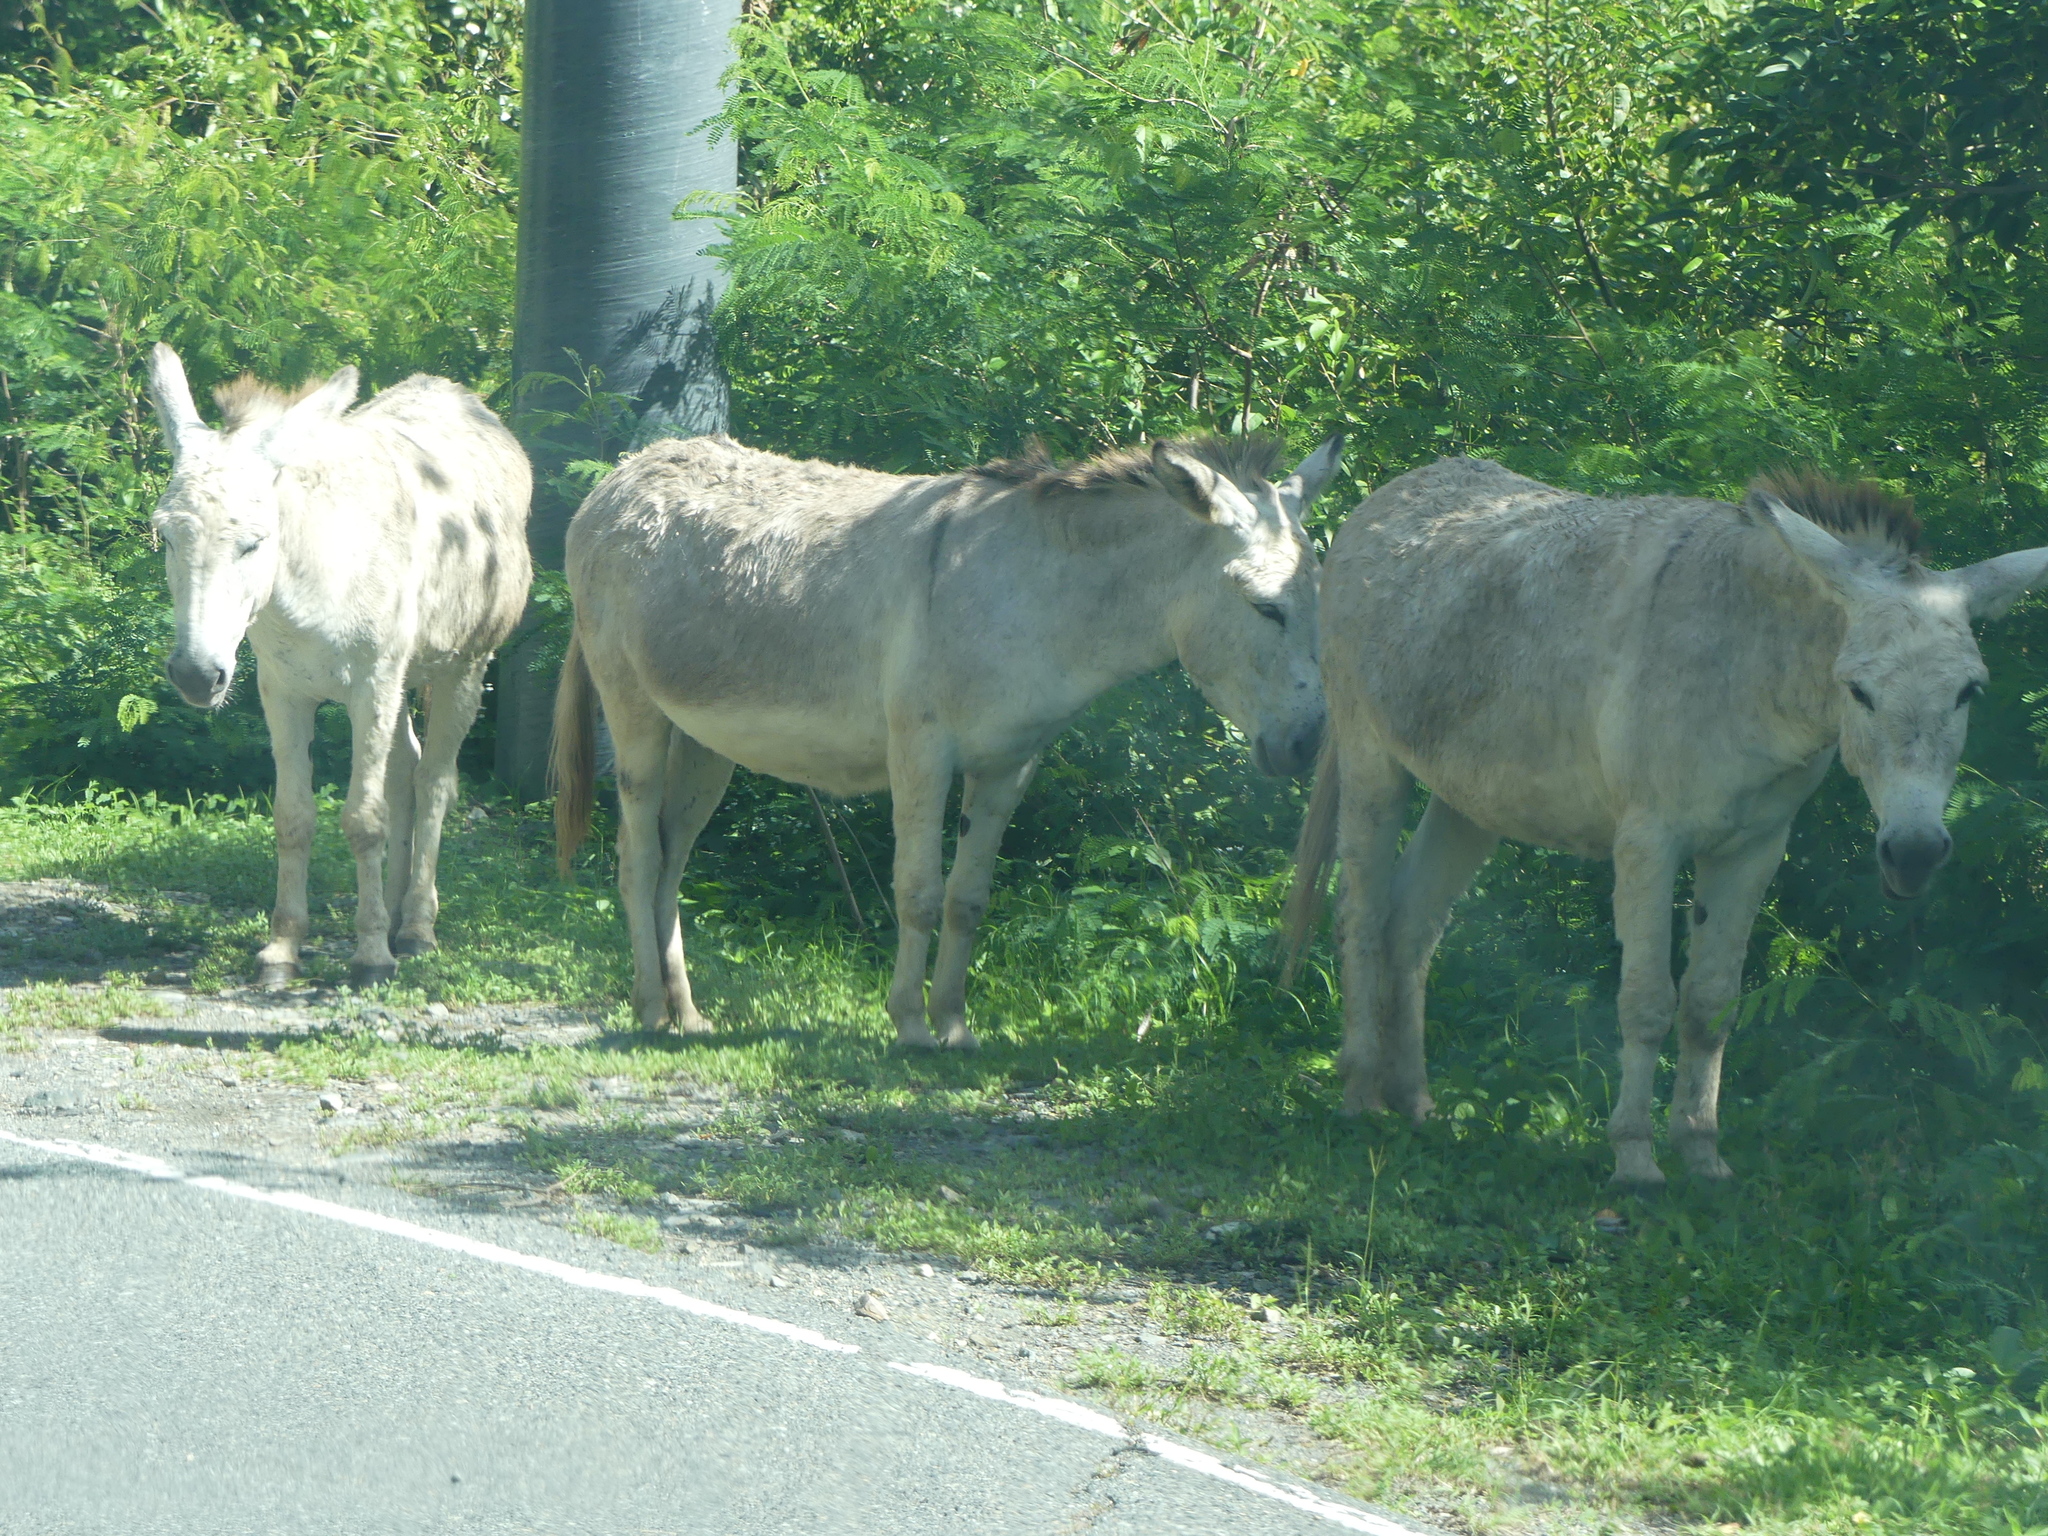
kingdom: Animalia
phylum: Chordata
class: Mammalia
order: Perissodactyla
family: Equidae
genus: Equus
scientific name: Equus asinus
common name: Ass
